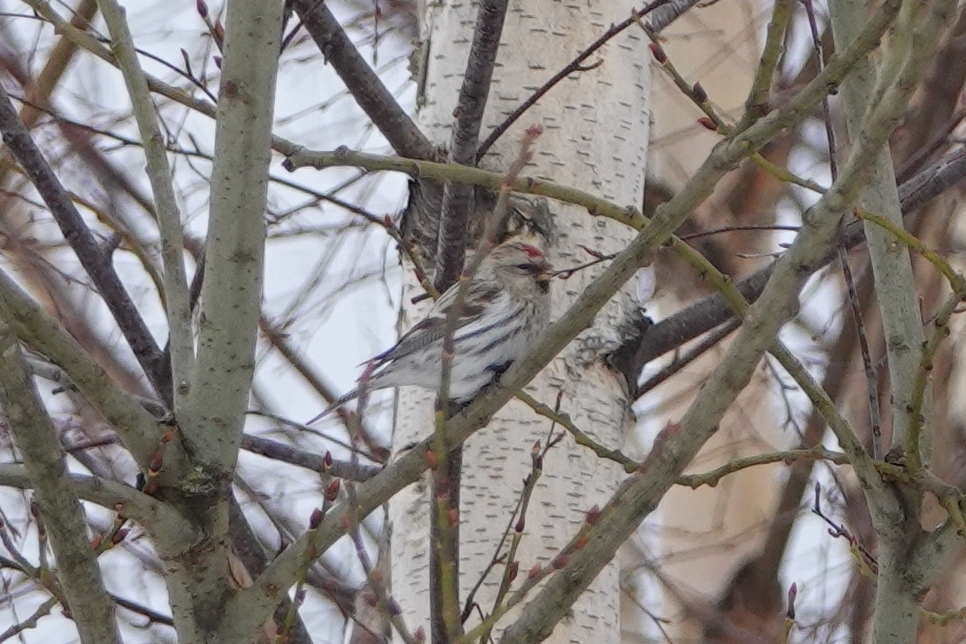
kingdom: Animalia
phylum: Chordata
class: Aves
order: Passeriformes
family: Fringillidae
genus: Acanthis
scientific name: Acanthis flammea
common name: Common redpoll
